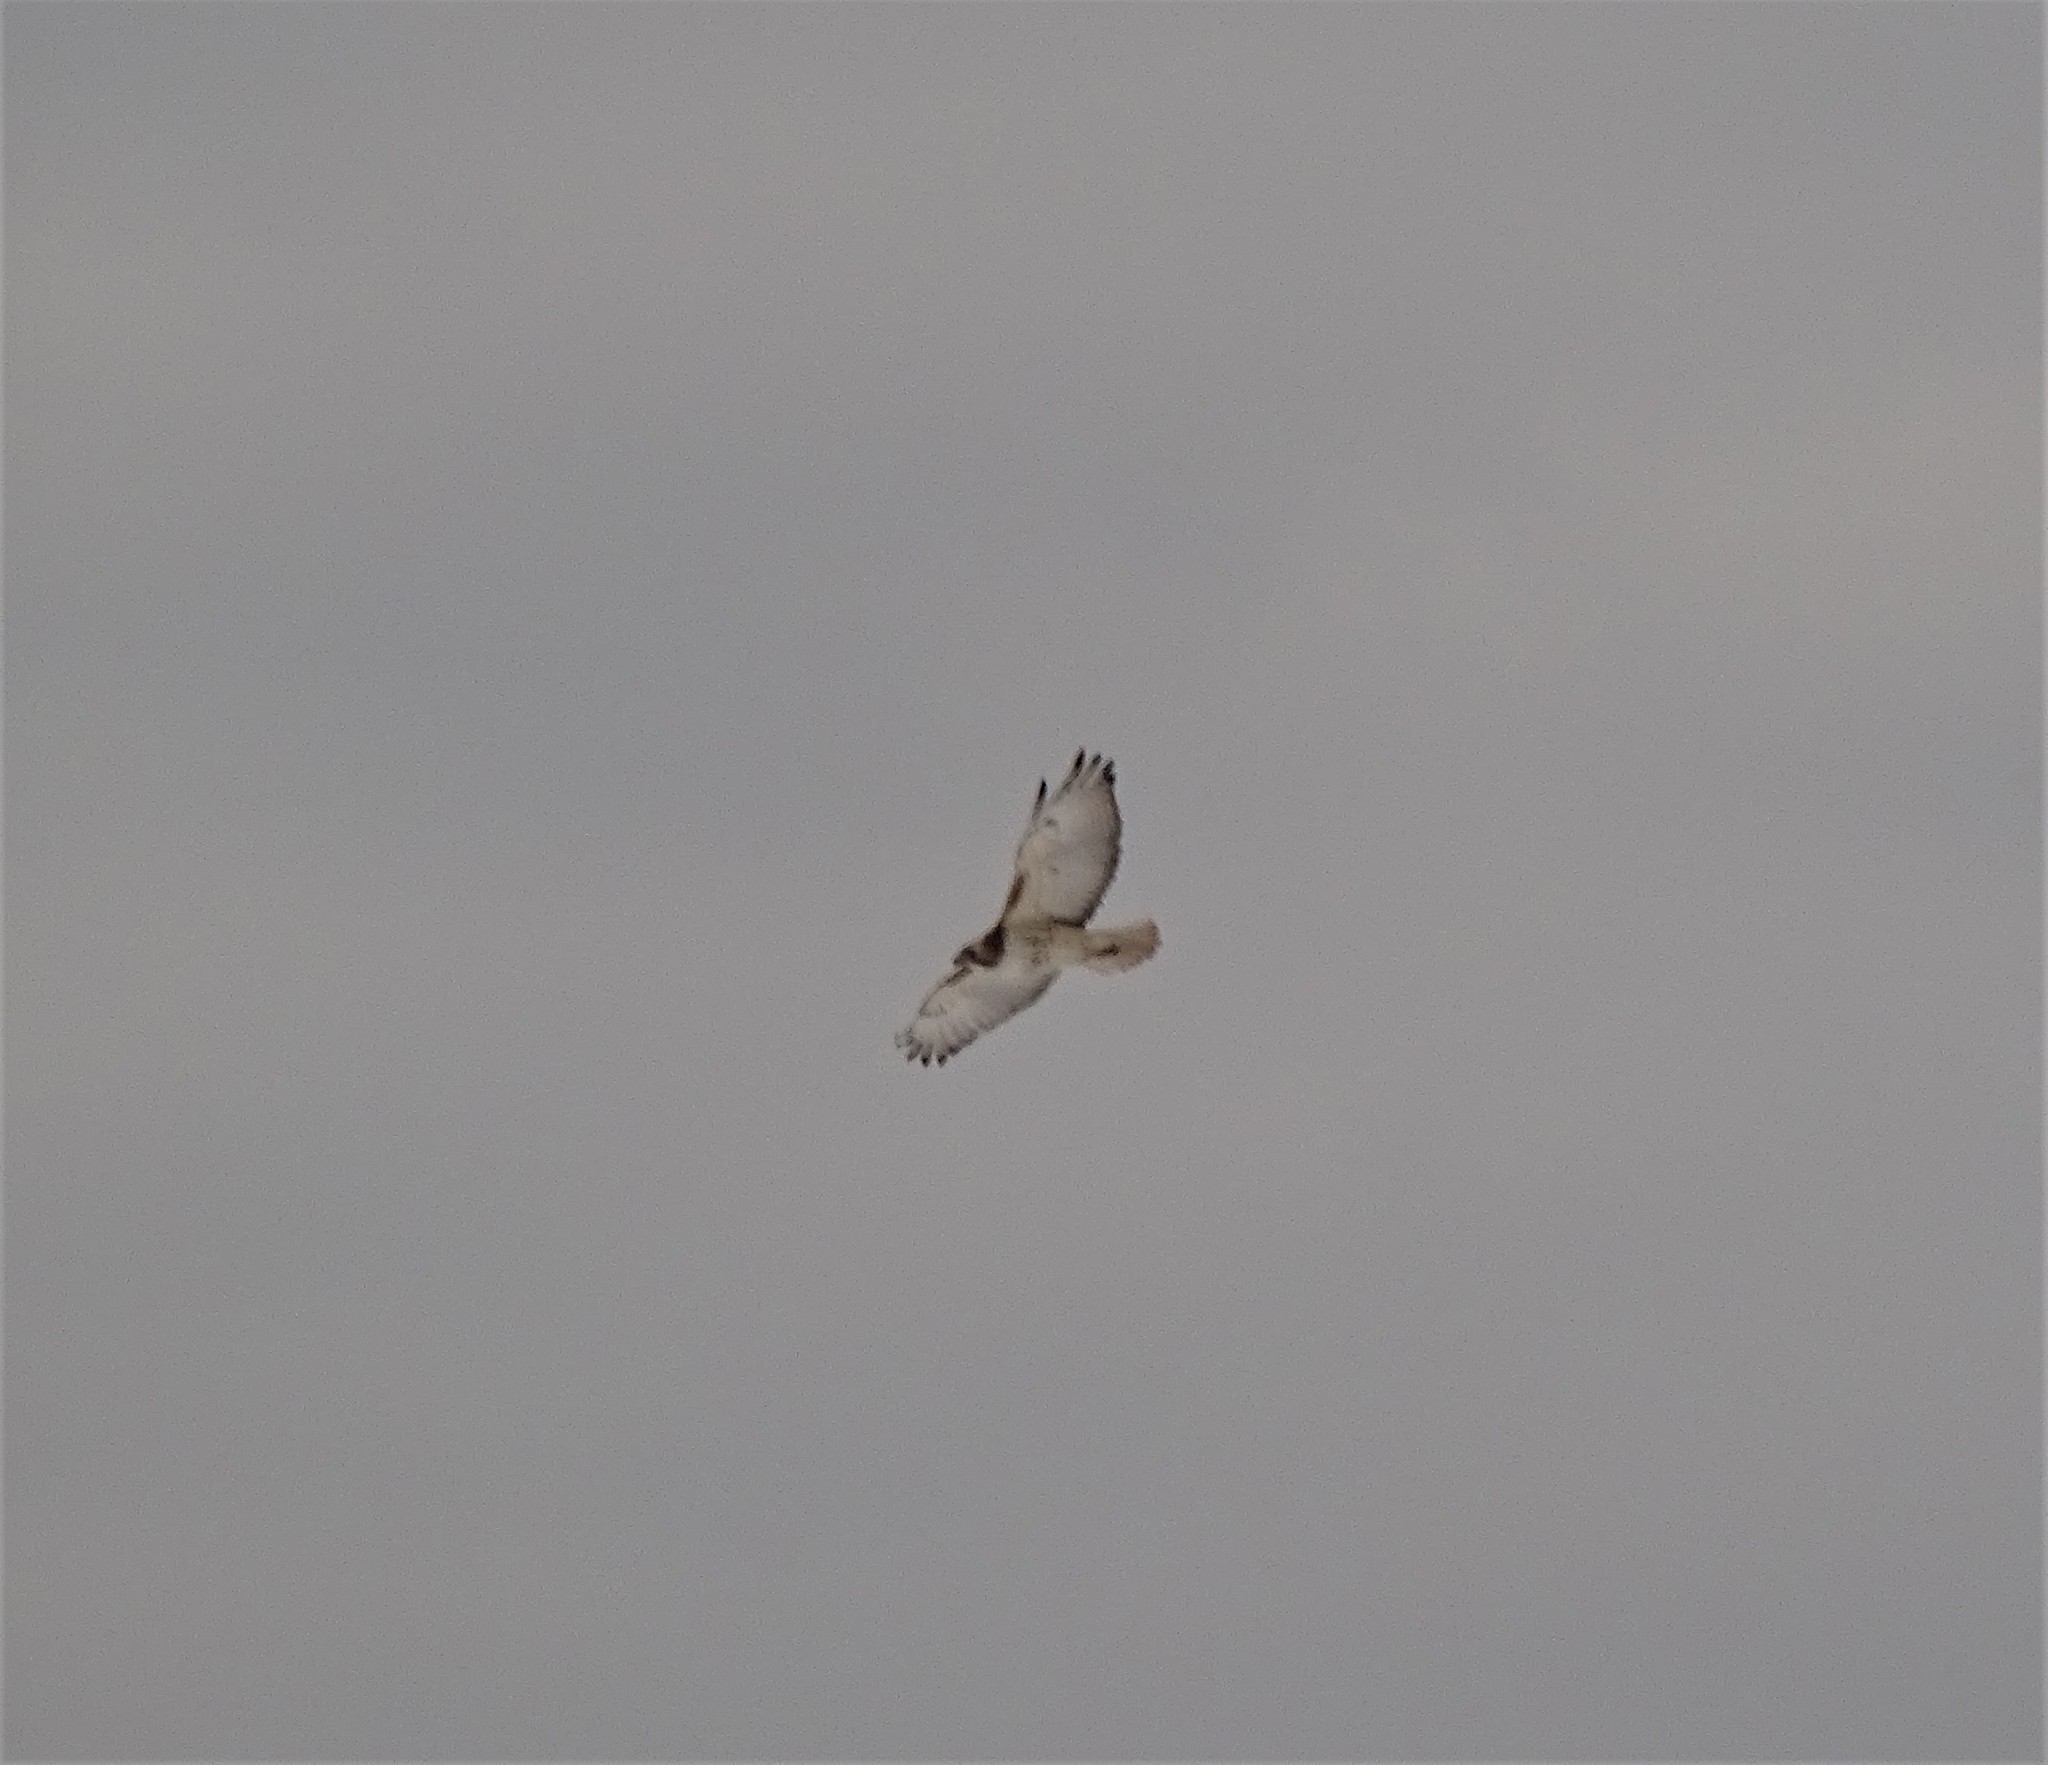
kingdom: Animalia
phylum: Chordata
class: Aves
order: Accipitriformes
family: Accipitridae
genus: Buteo
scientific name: Buteo jamaicensis
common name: Red-tailed hawk
